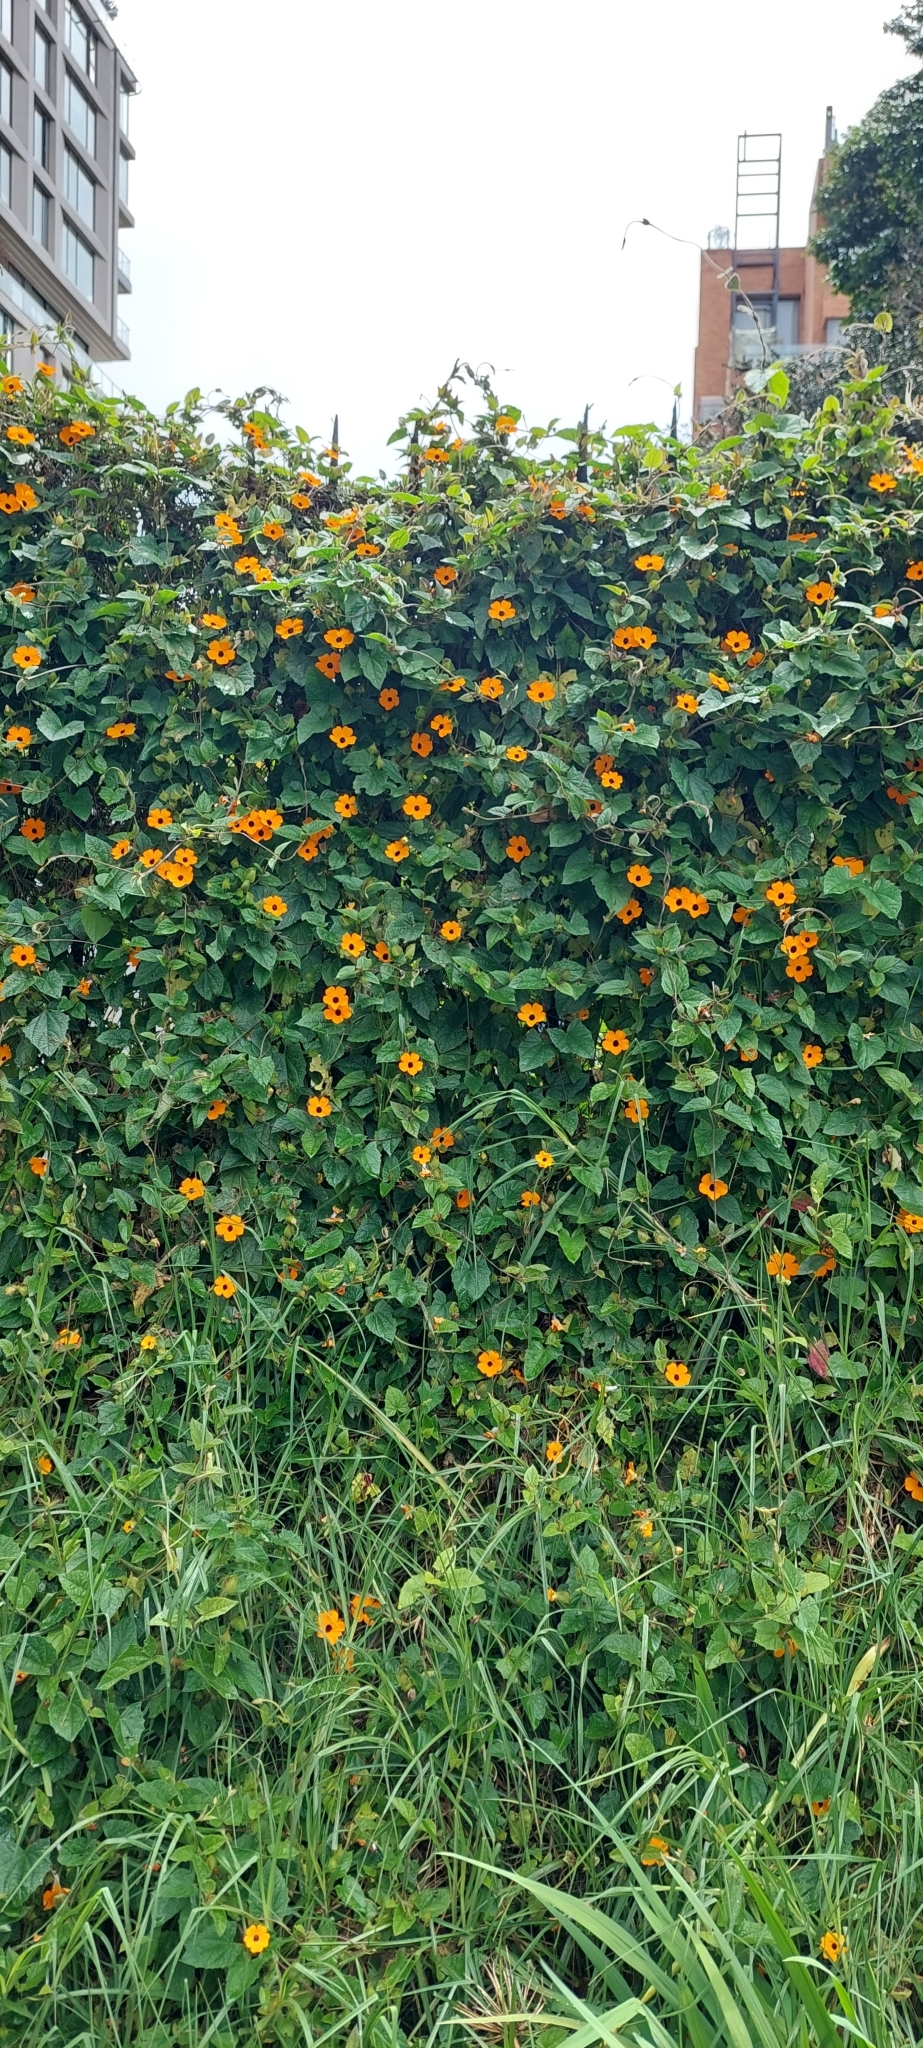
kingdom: Plantae
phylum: Tracheophyta
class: Magnoliopsida
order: Lamiales
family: Acanthaceae
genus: Thunbergia
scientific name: Thunbergia alata
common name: Blackeyed susan vine
